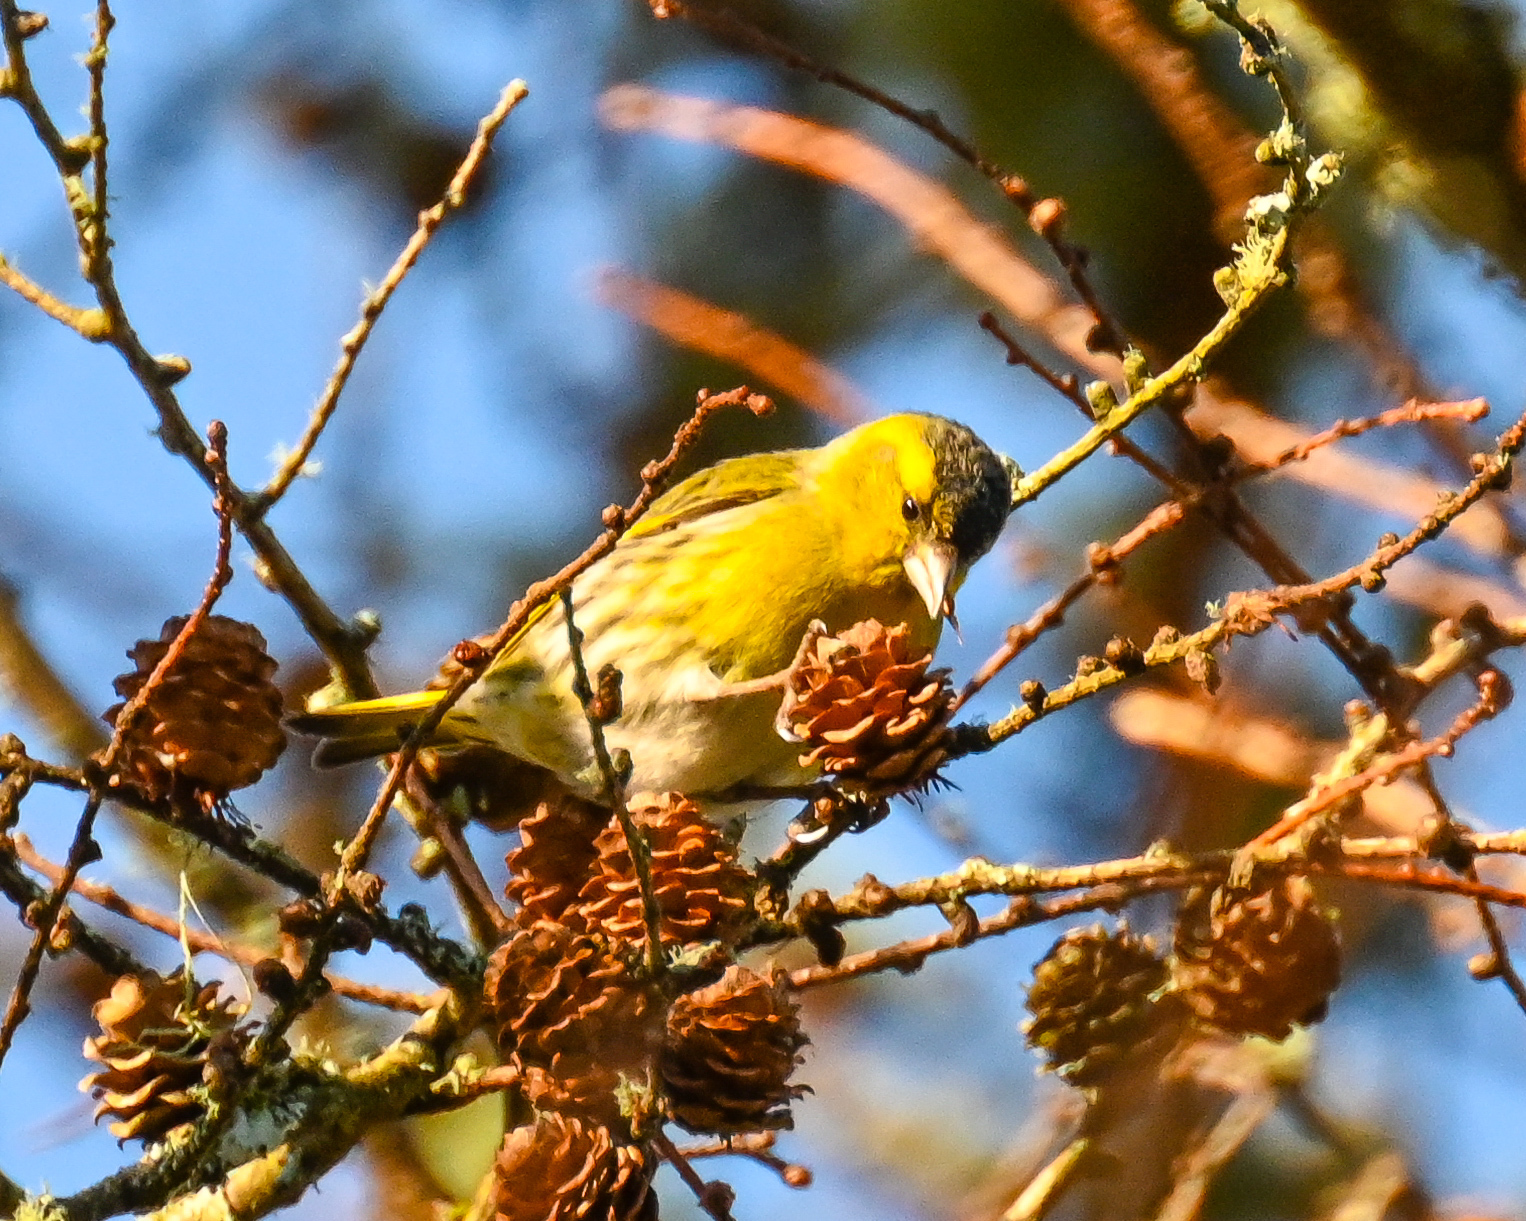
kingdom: Animalia
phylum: Chordata
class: Aves
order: Passeriformes
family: Fringillidae
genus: Spinus
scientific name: Spinus spinus
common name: Eurasian siskin
